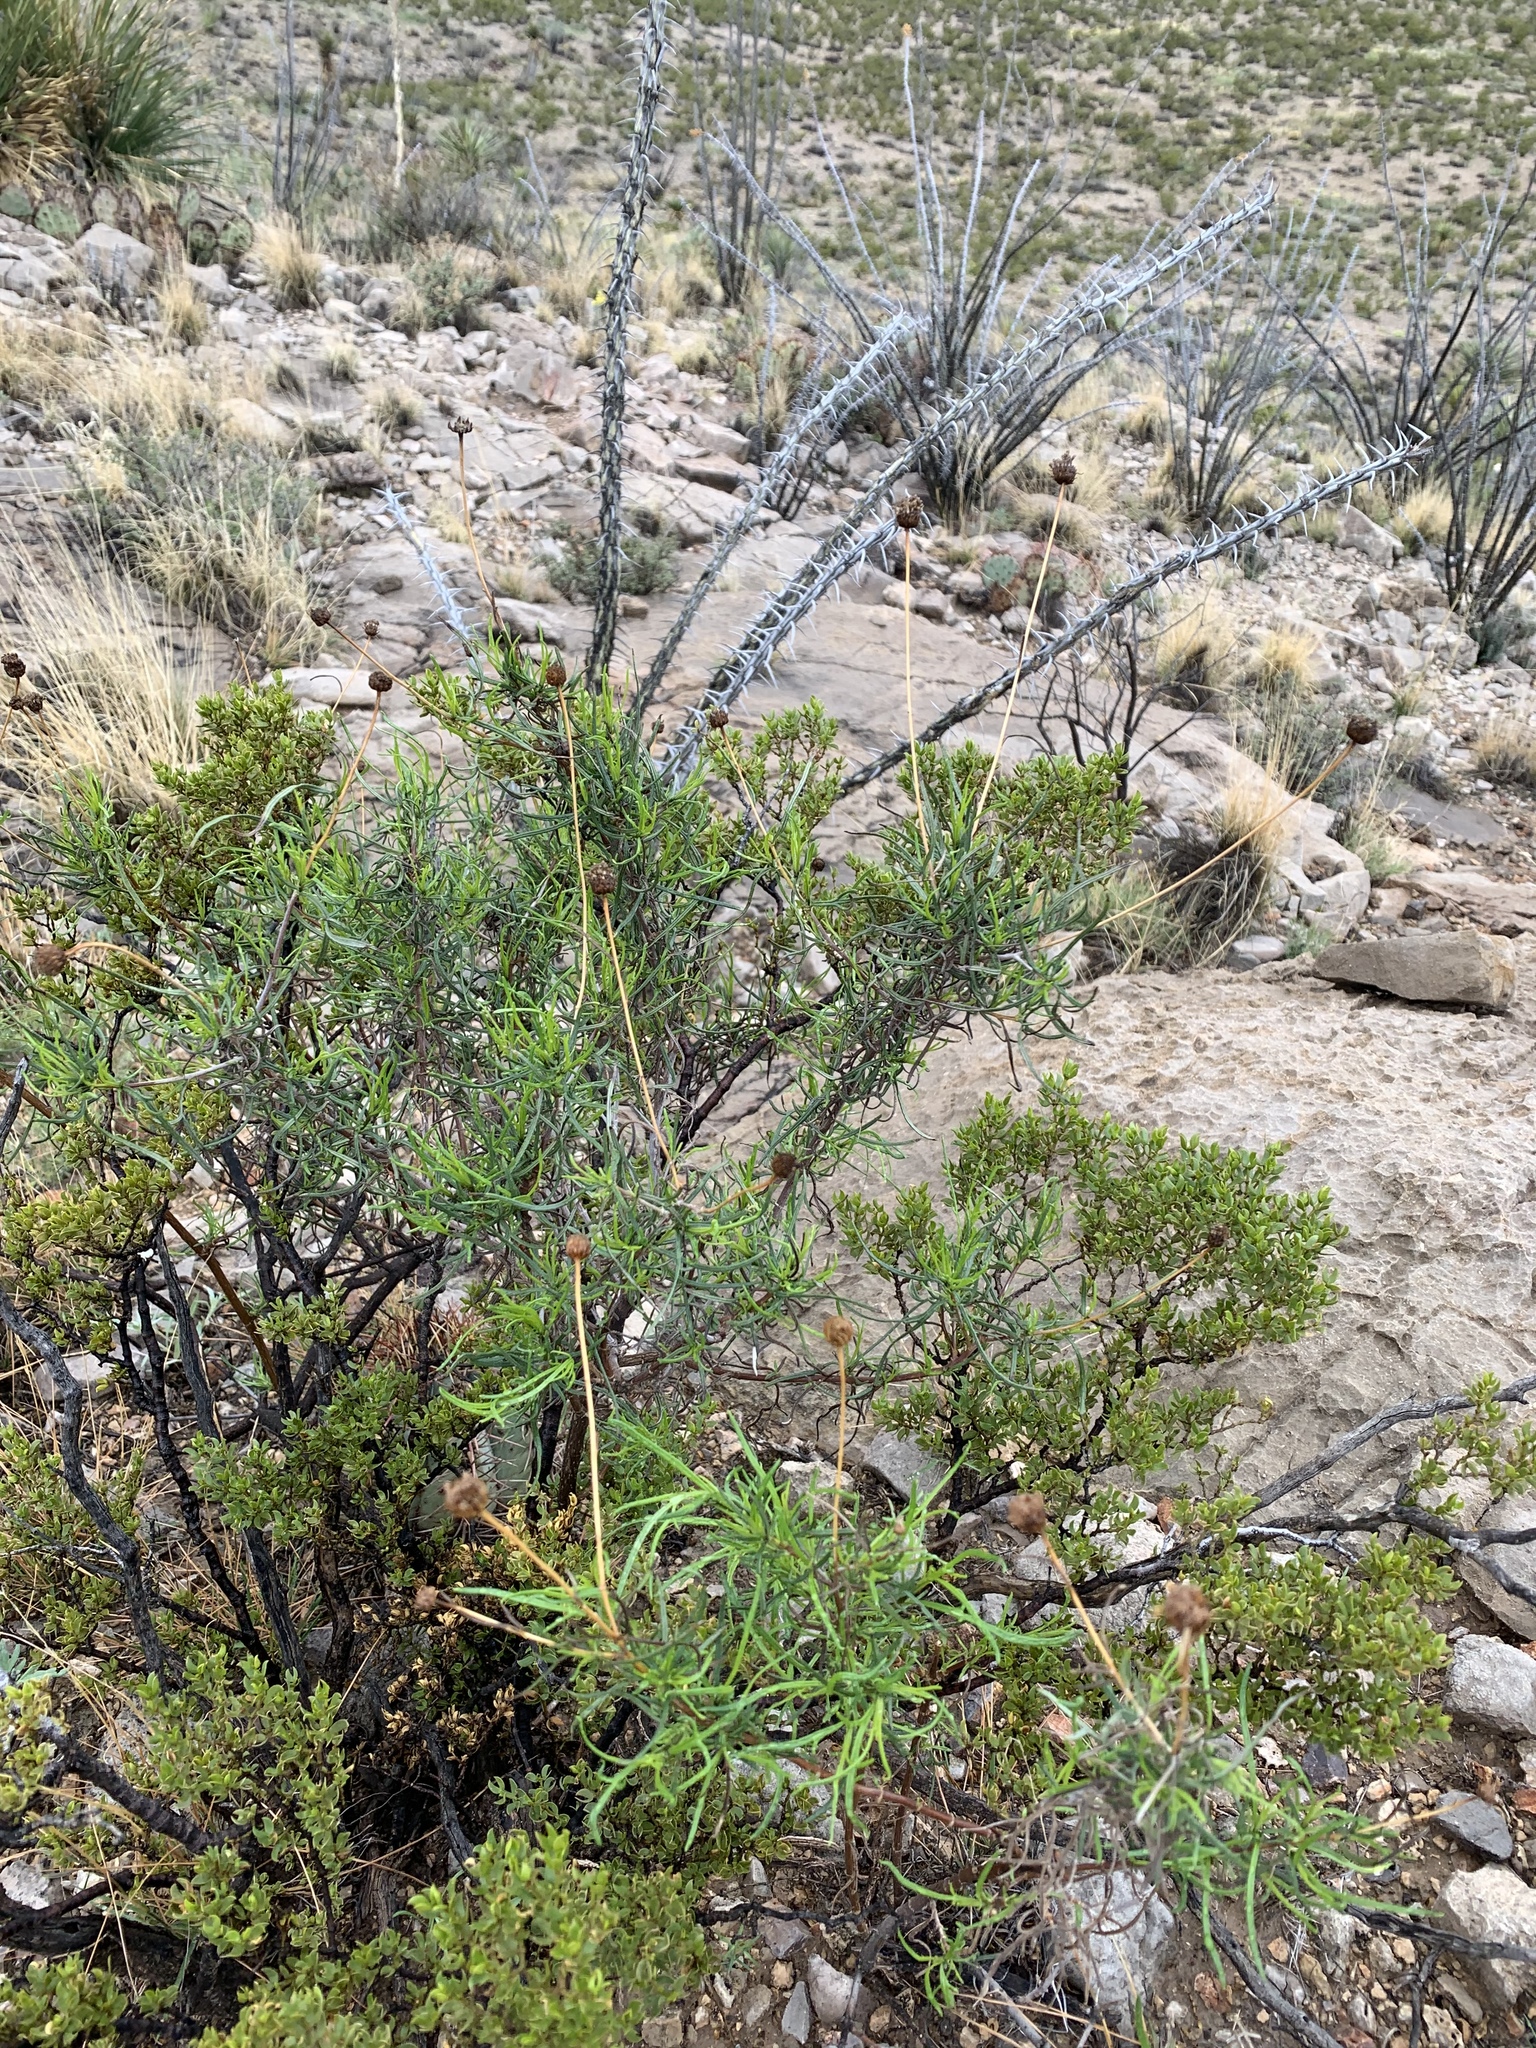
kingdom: Plantae
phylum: Tracheophyta
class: Magnoliopsida
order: Asterales
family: Asteraceae
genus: Sidneya
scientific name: Sidneya tenuifolia
